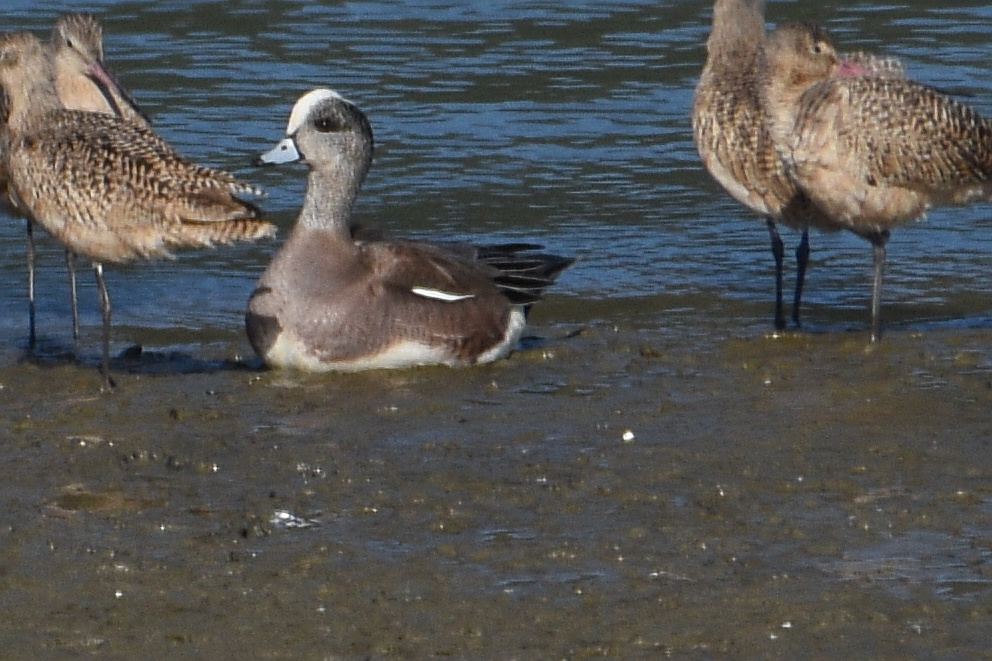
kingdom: Animalia
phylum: Chordata
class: Aves
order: Anseriformes
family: Anatidae
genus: Mareca
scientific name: Mareca americana
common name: American wigeon
